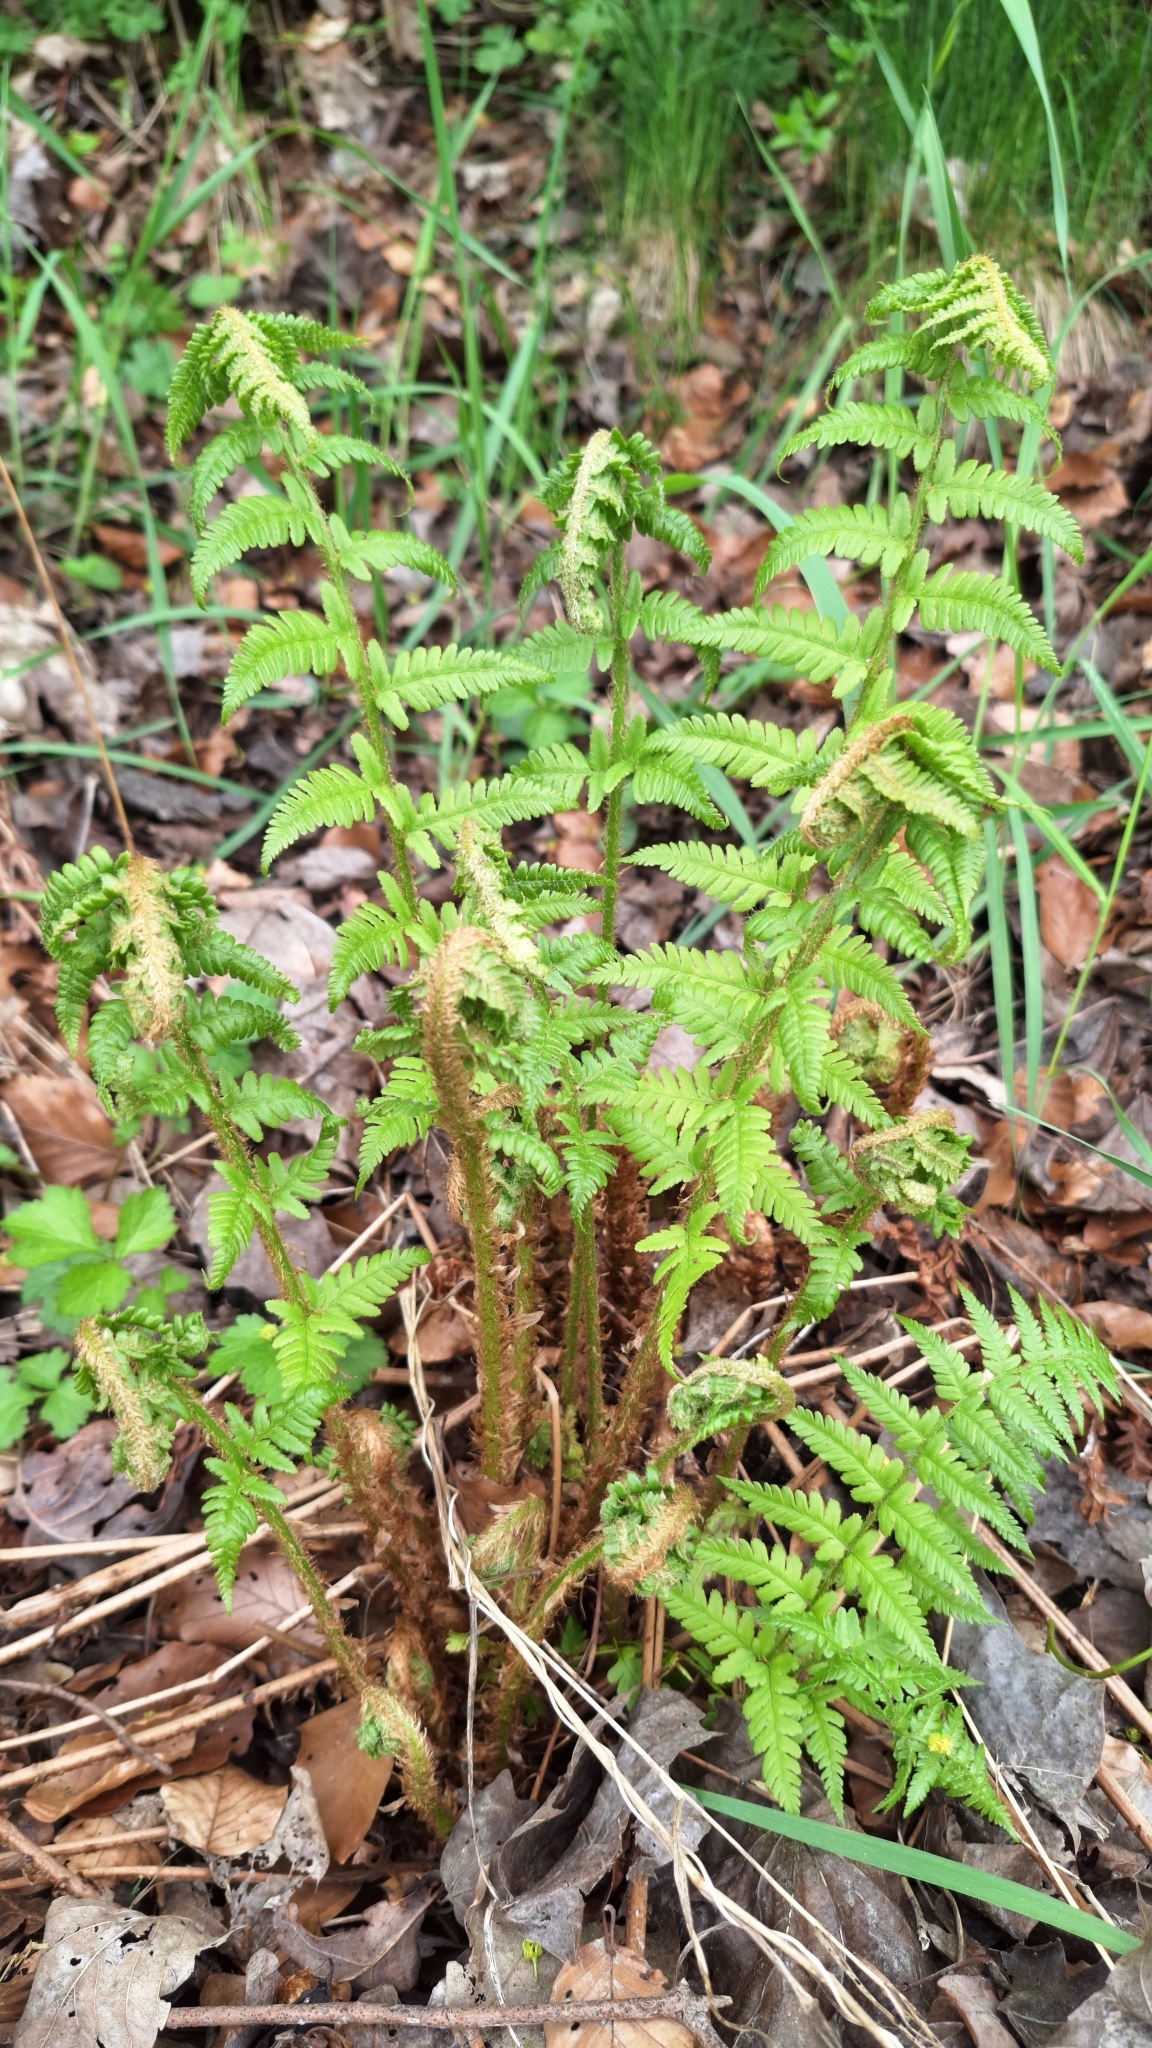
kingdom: Plantae
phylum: Tracheophyta
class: Polypodiopsida
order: Polypodiales
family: Dryopteridaceae
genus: Dryopteris
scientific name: Dryopteris filix-mas
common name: Male fern
